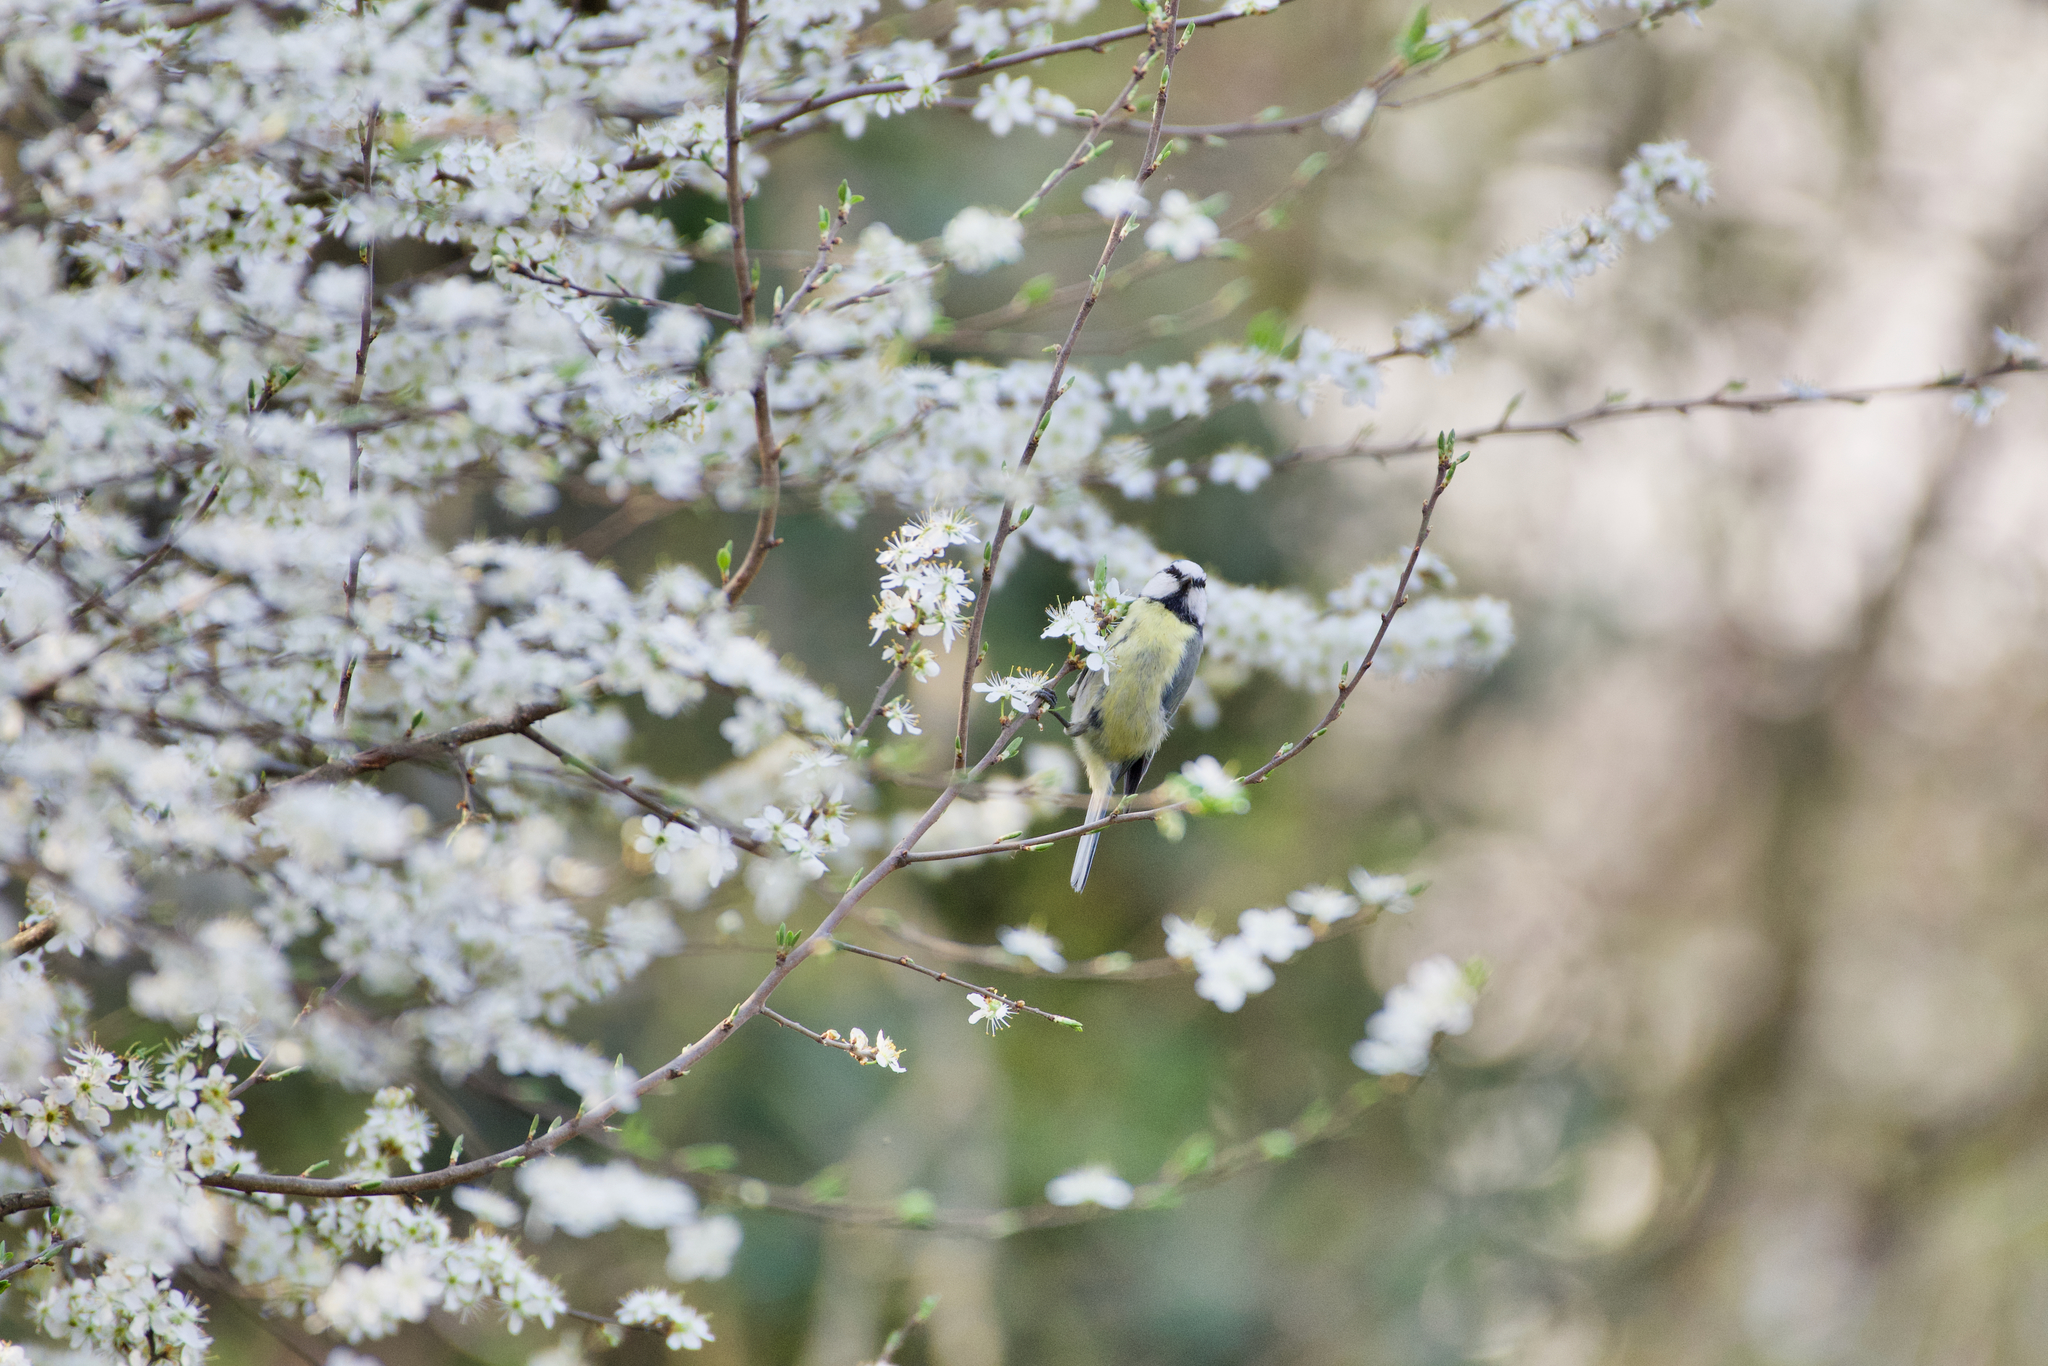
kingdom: Animalia
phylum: Chordata
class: Aves
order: Passeriformes
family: Paridae
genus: Cyanistes
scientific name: Cyanistes caeruleus
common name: Eurasian blue tit
